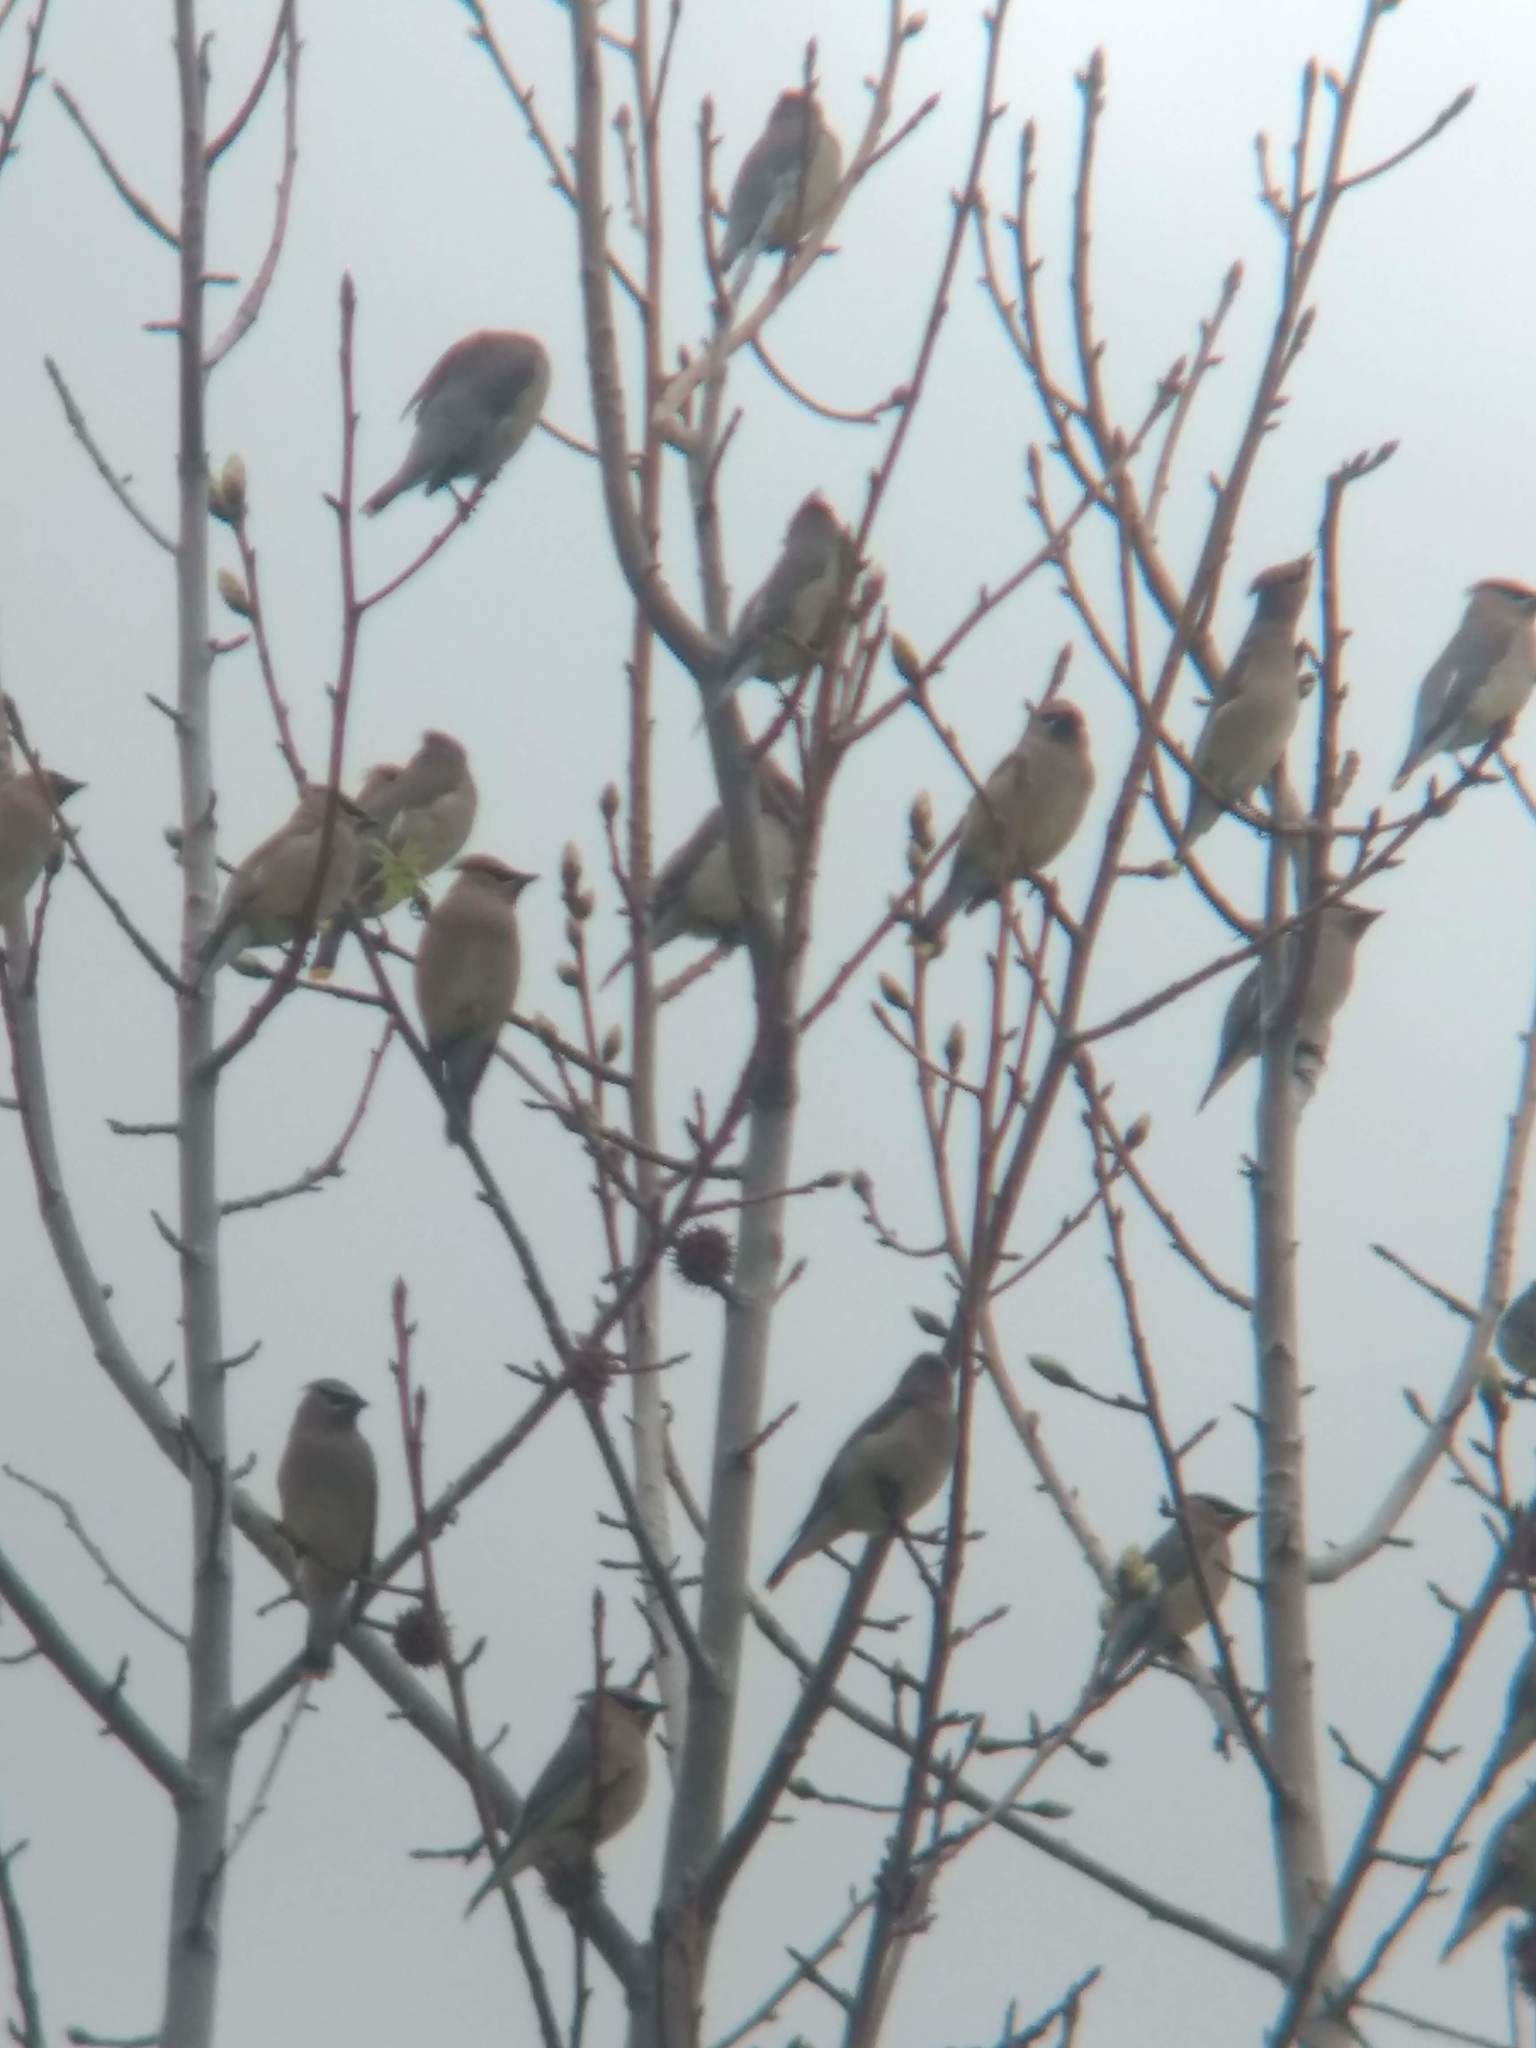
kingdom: Animalia
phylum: Chordata
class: Aves
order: Passeriformes
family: Bombycillidae
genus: Bombycilla
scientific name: Bombycilla cedrorum
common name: Cedar waxwing
